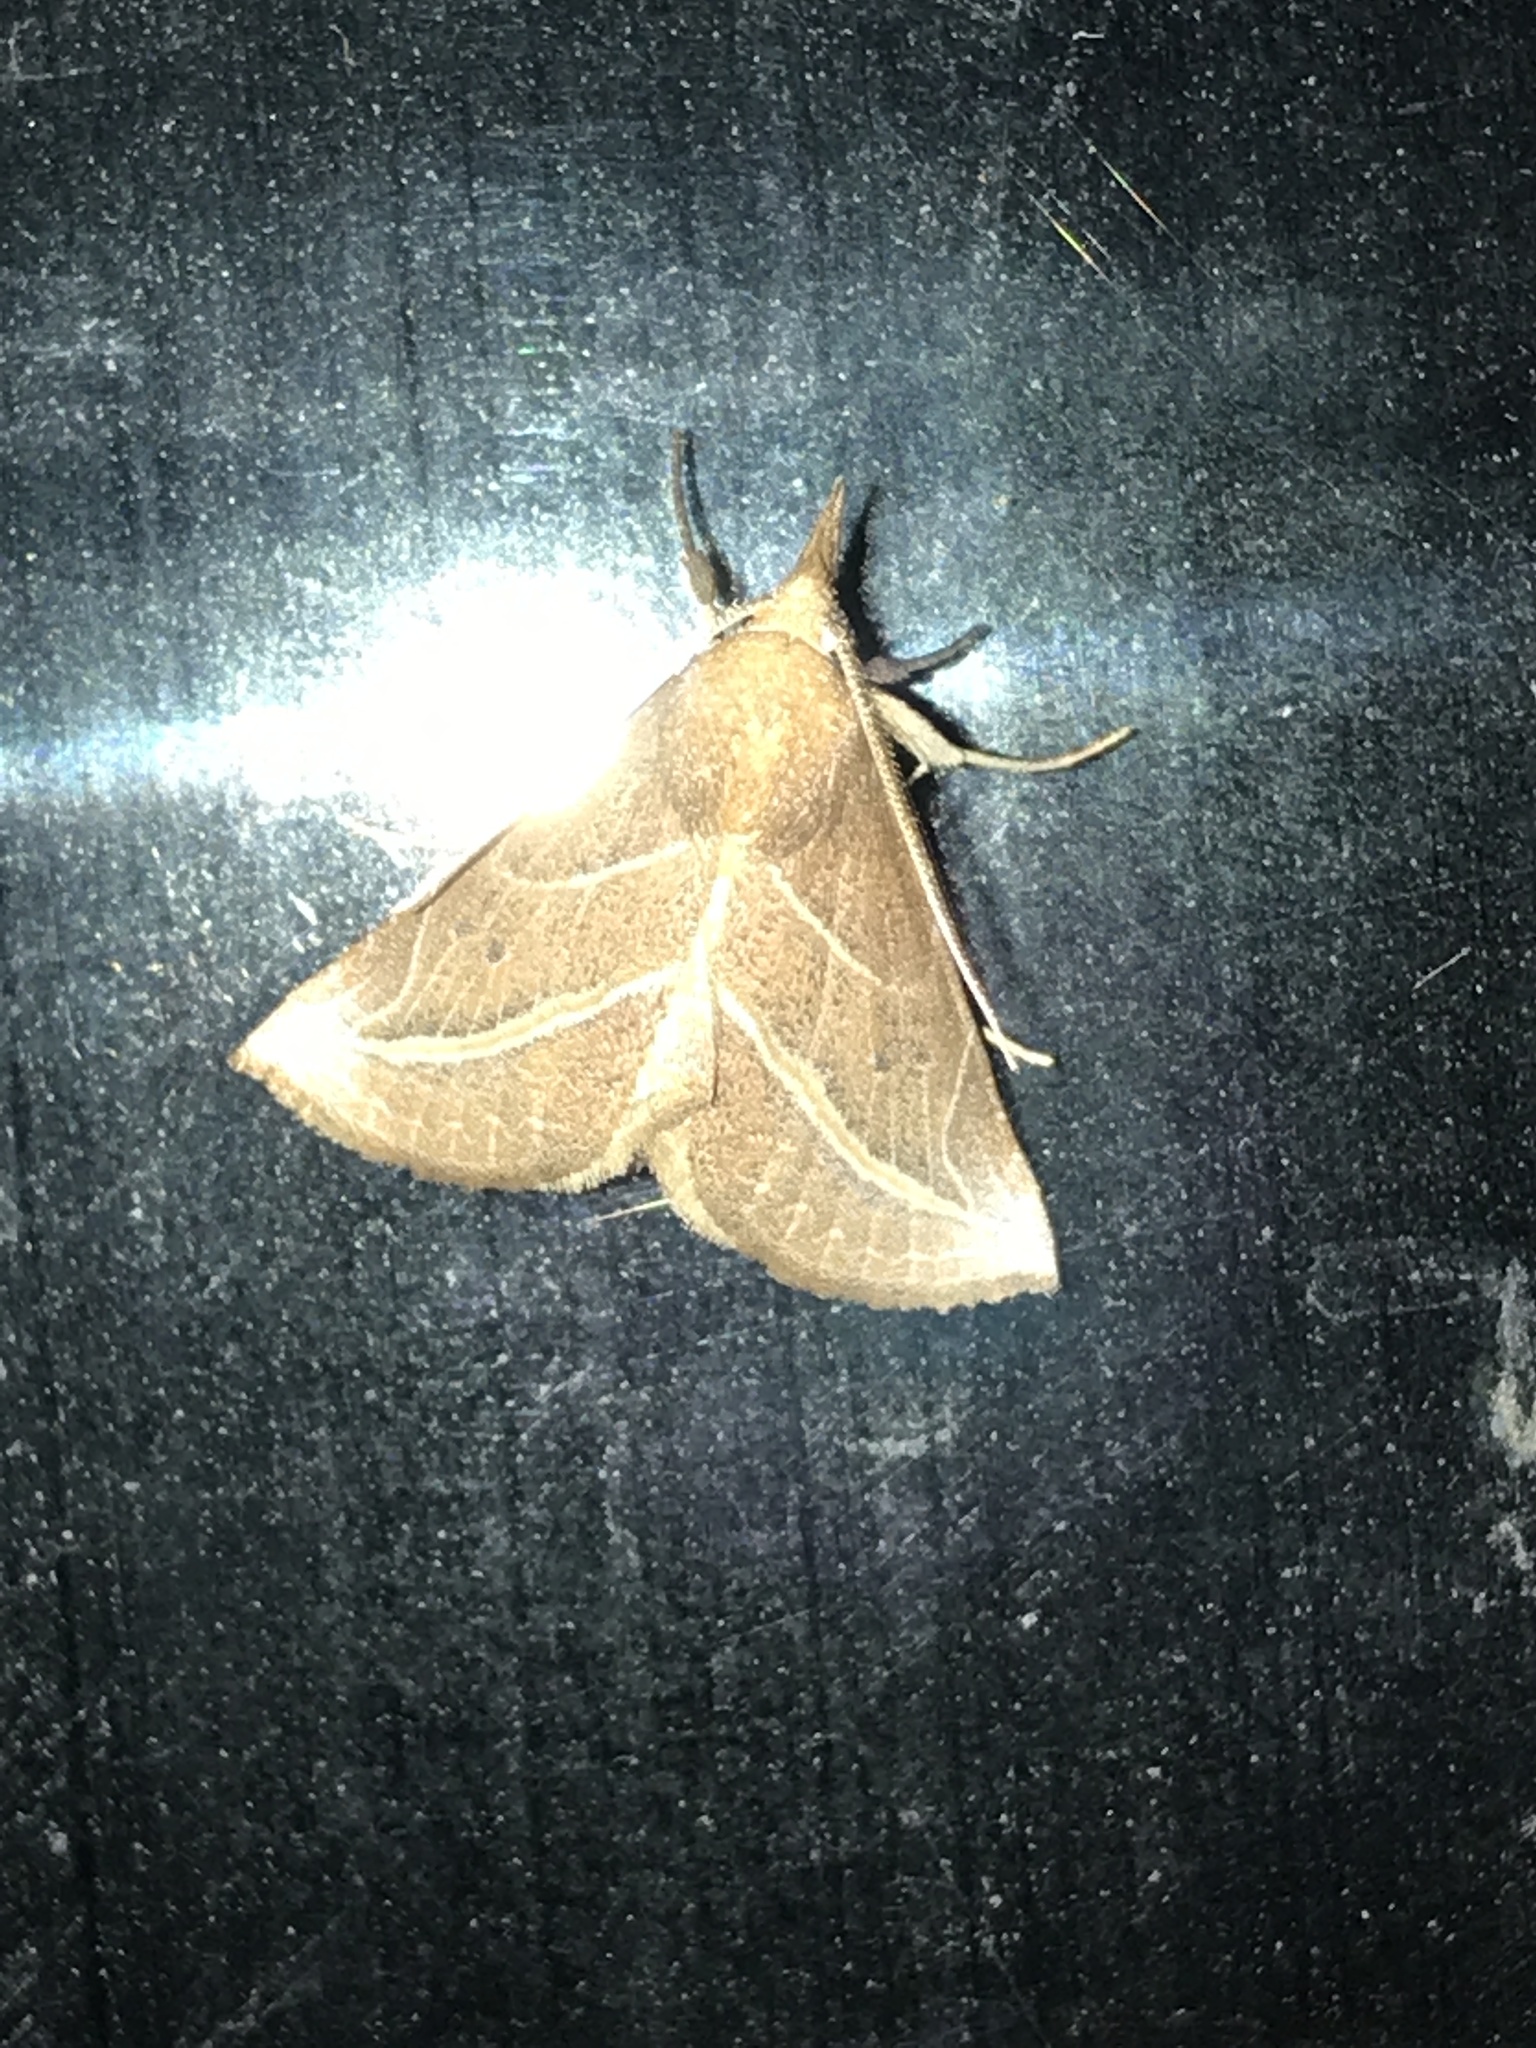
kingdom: Animalia
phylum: Arthropoda
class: Insecta
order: Lepidoptera
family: Erebidae
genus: Phyprosopus
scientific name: Phyprosopus callitrichoides
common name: Curved-lined owlet
